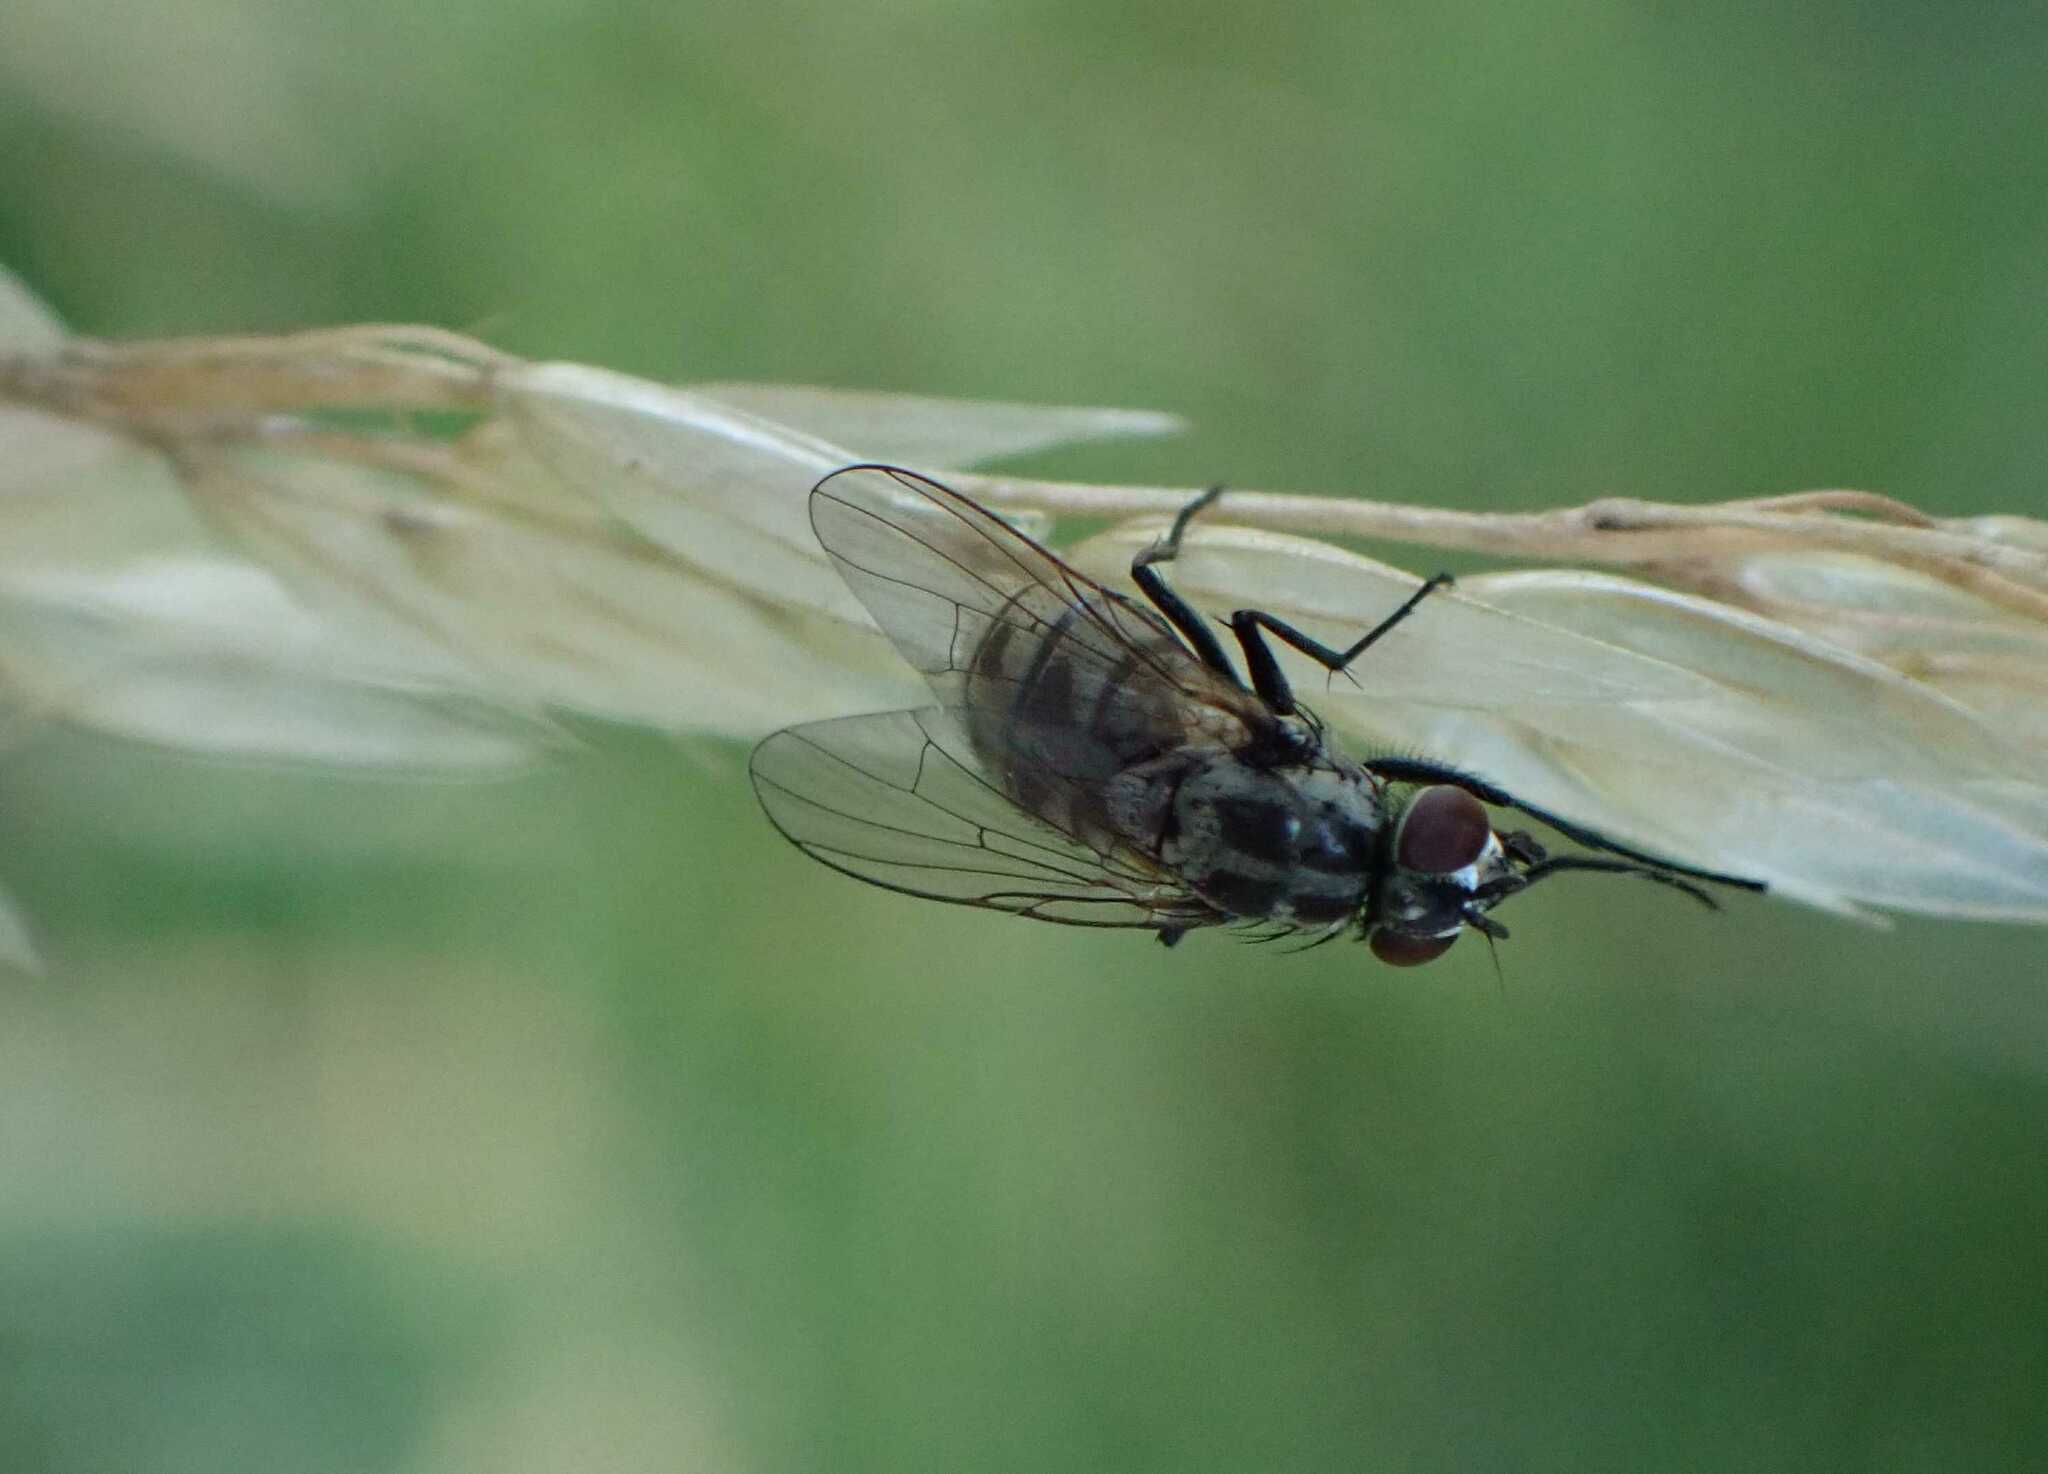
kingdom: Animalia
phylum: Arthropoda
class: Insecta
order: Diptera
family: Muscidae
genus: Limnophora
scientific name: Limnophora tigrina
